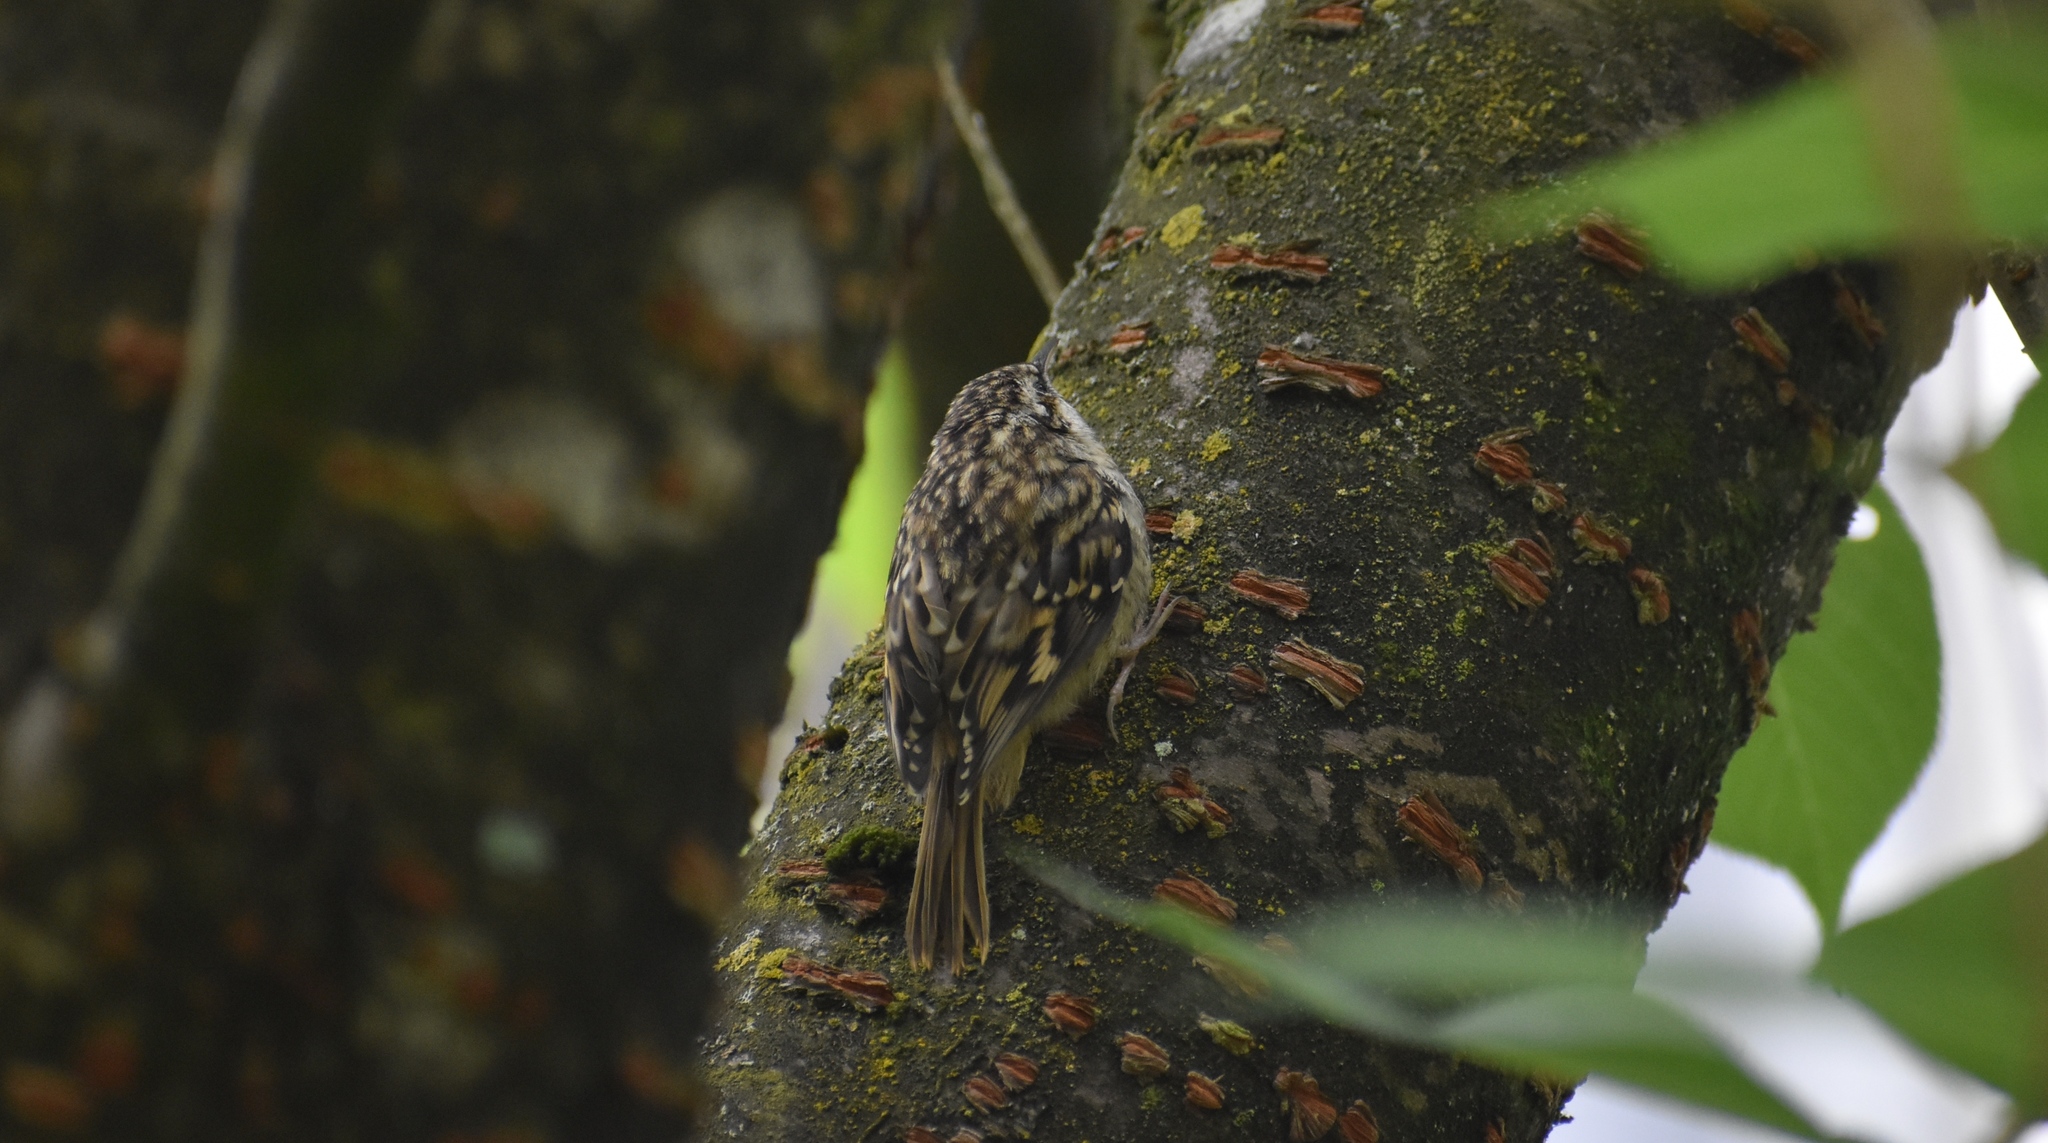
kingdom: Animalia
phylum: Chordata
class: Aves
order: Passeriformes
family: Certhiidae
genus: Certhia
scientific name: Certhia brachydactyla
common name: Short-toed treecreeper
